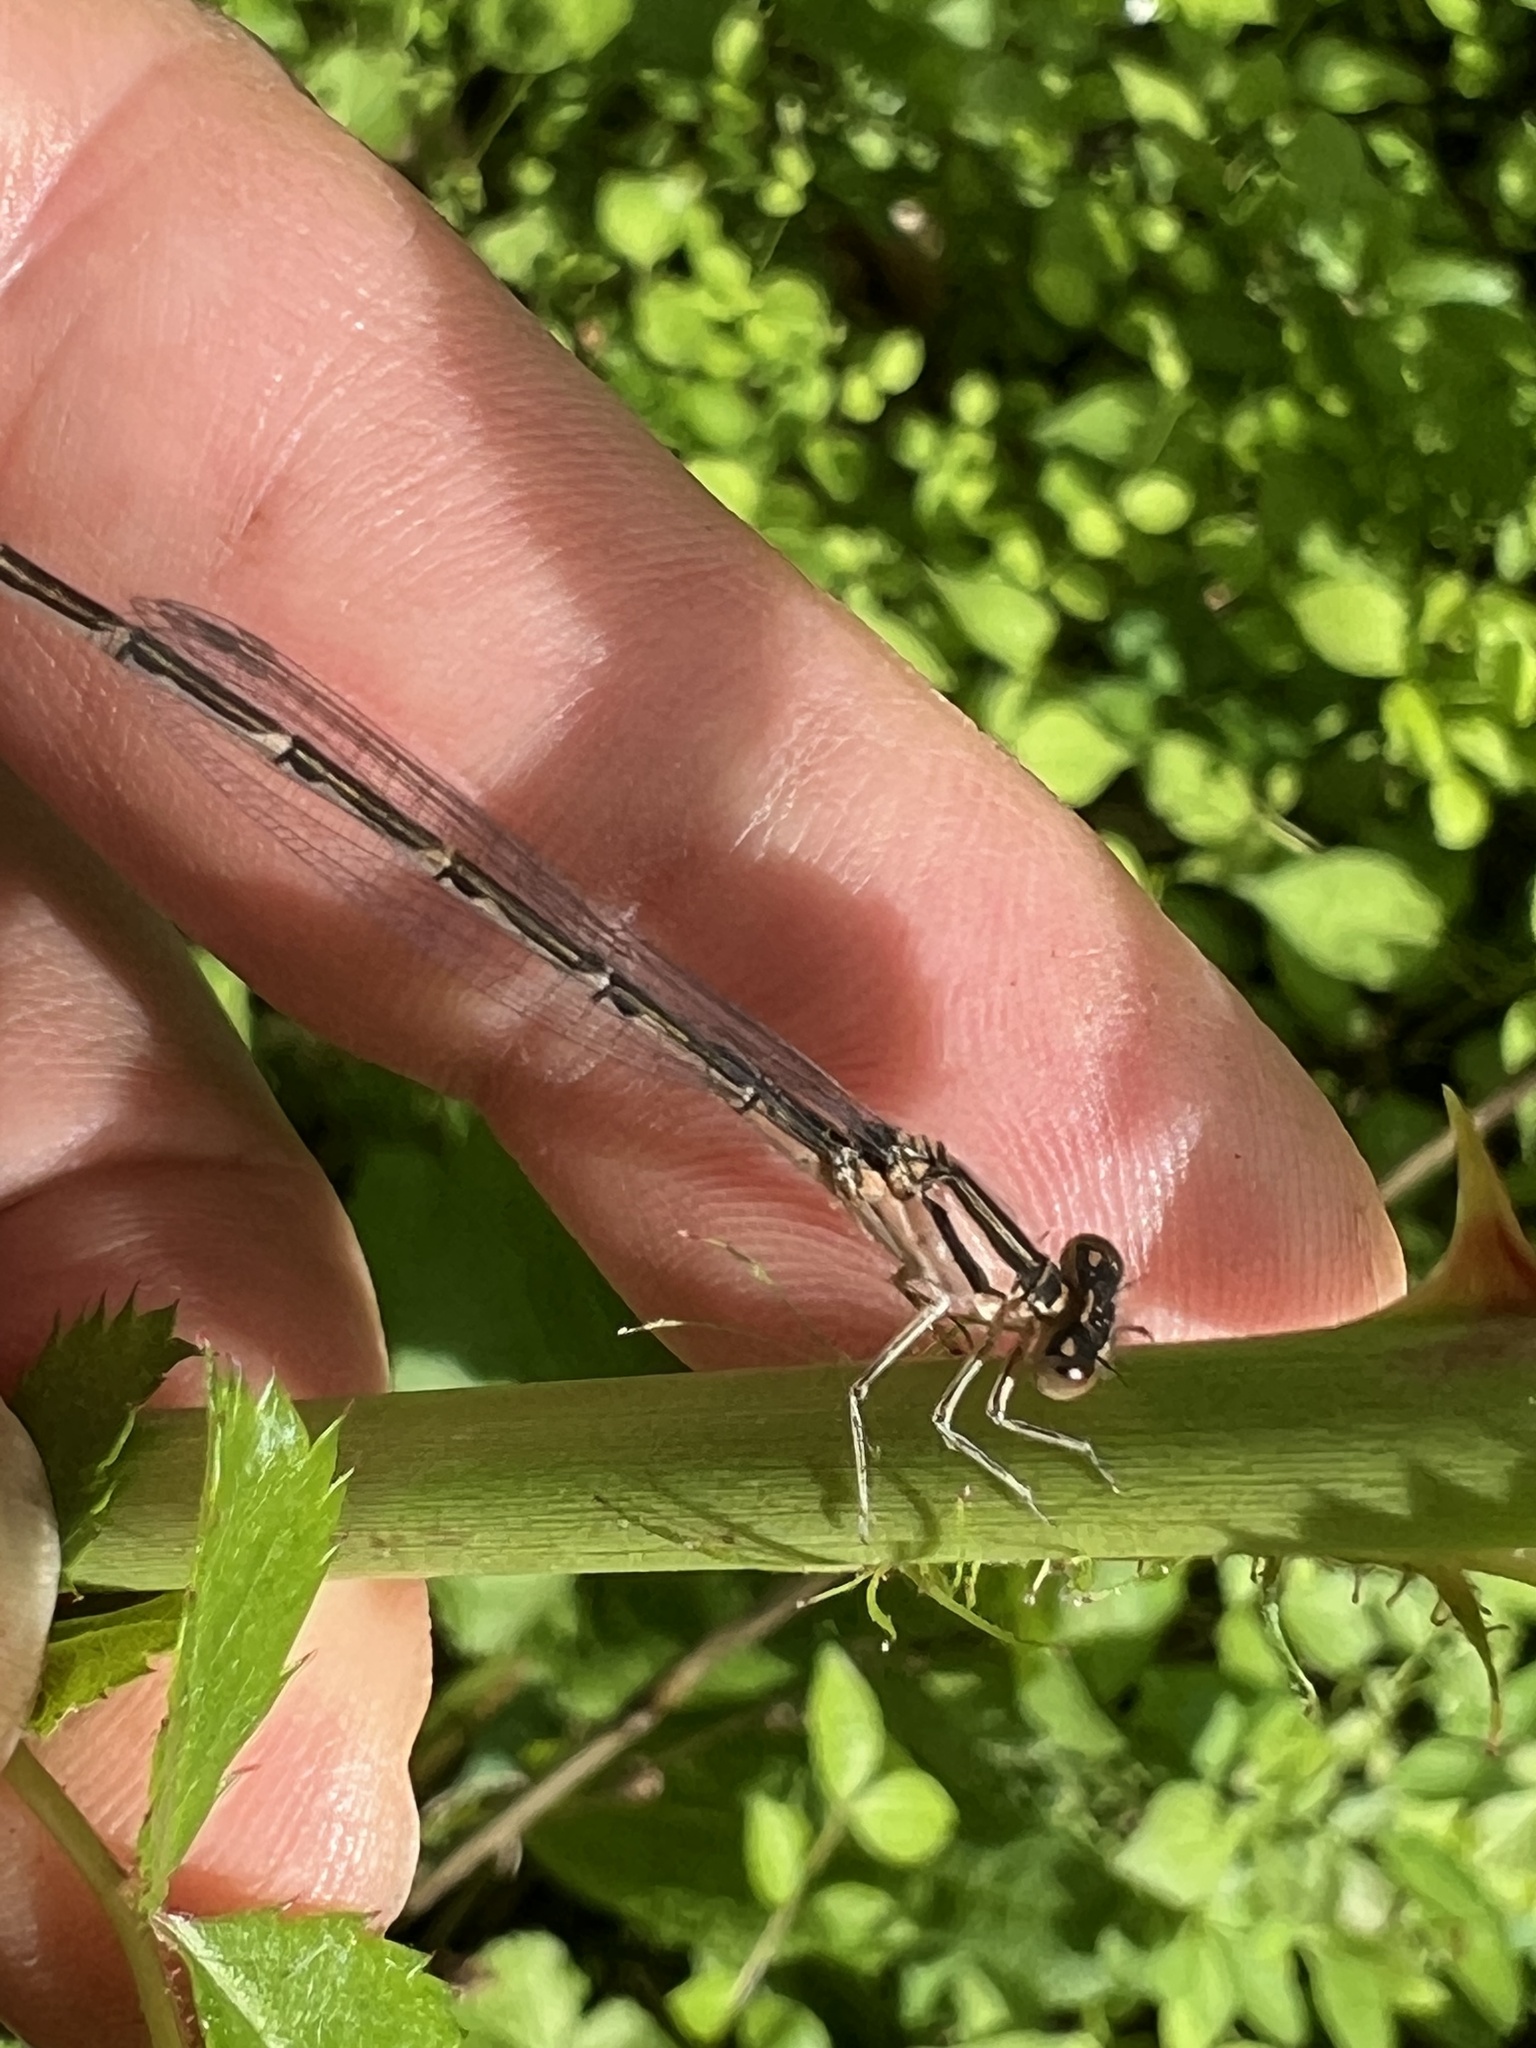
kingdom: Animalia
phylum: Arthropoda
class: Insecta
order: Odonata
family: Coenagrionidae
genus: Enallagma
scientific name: Enallagma durum
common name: Big bluet
